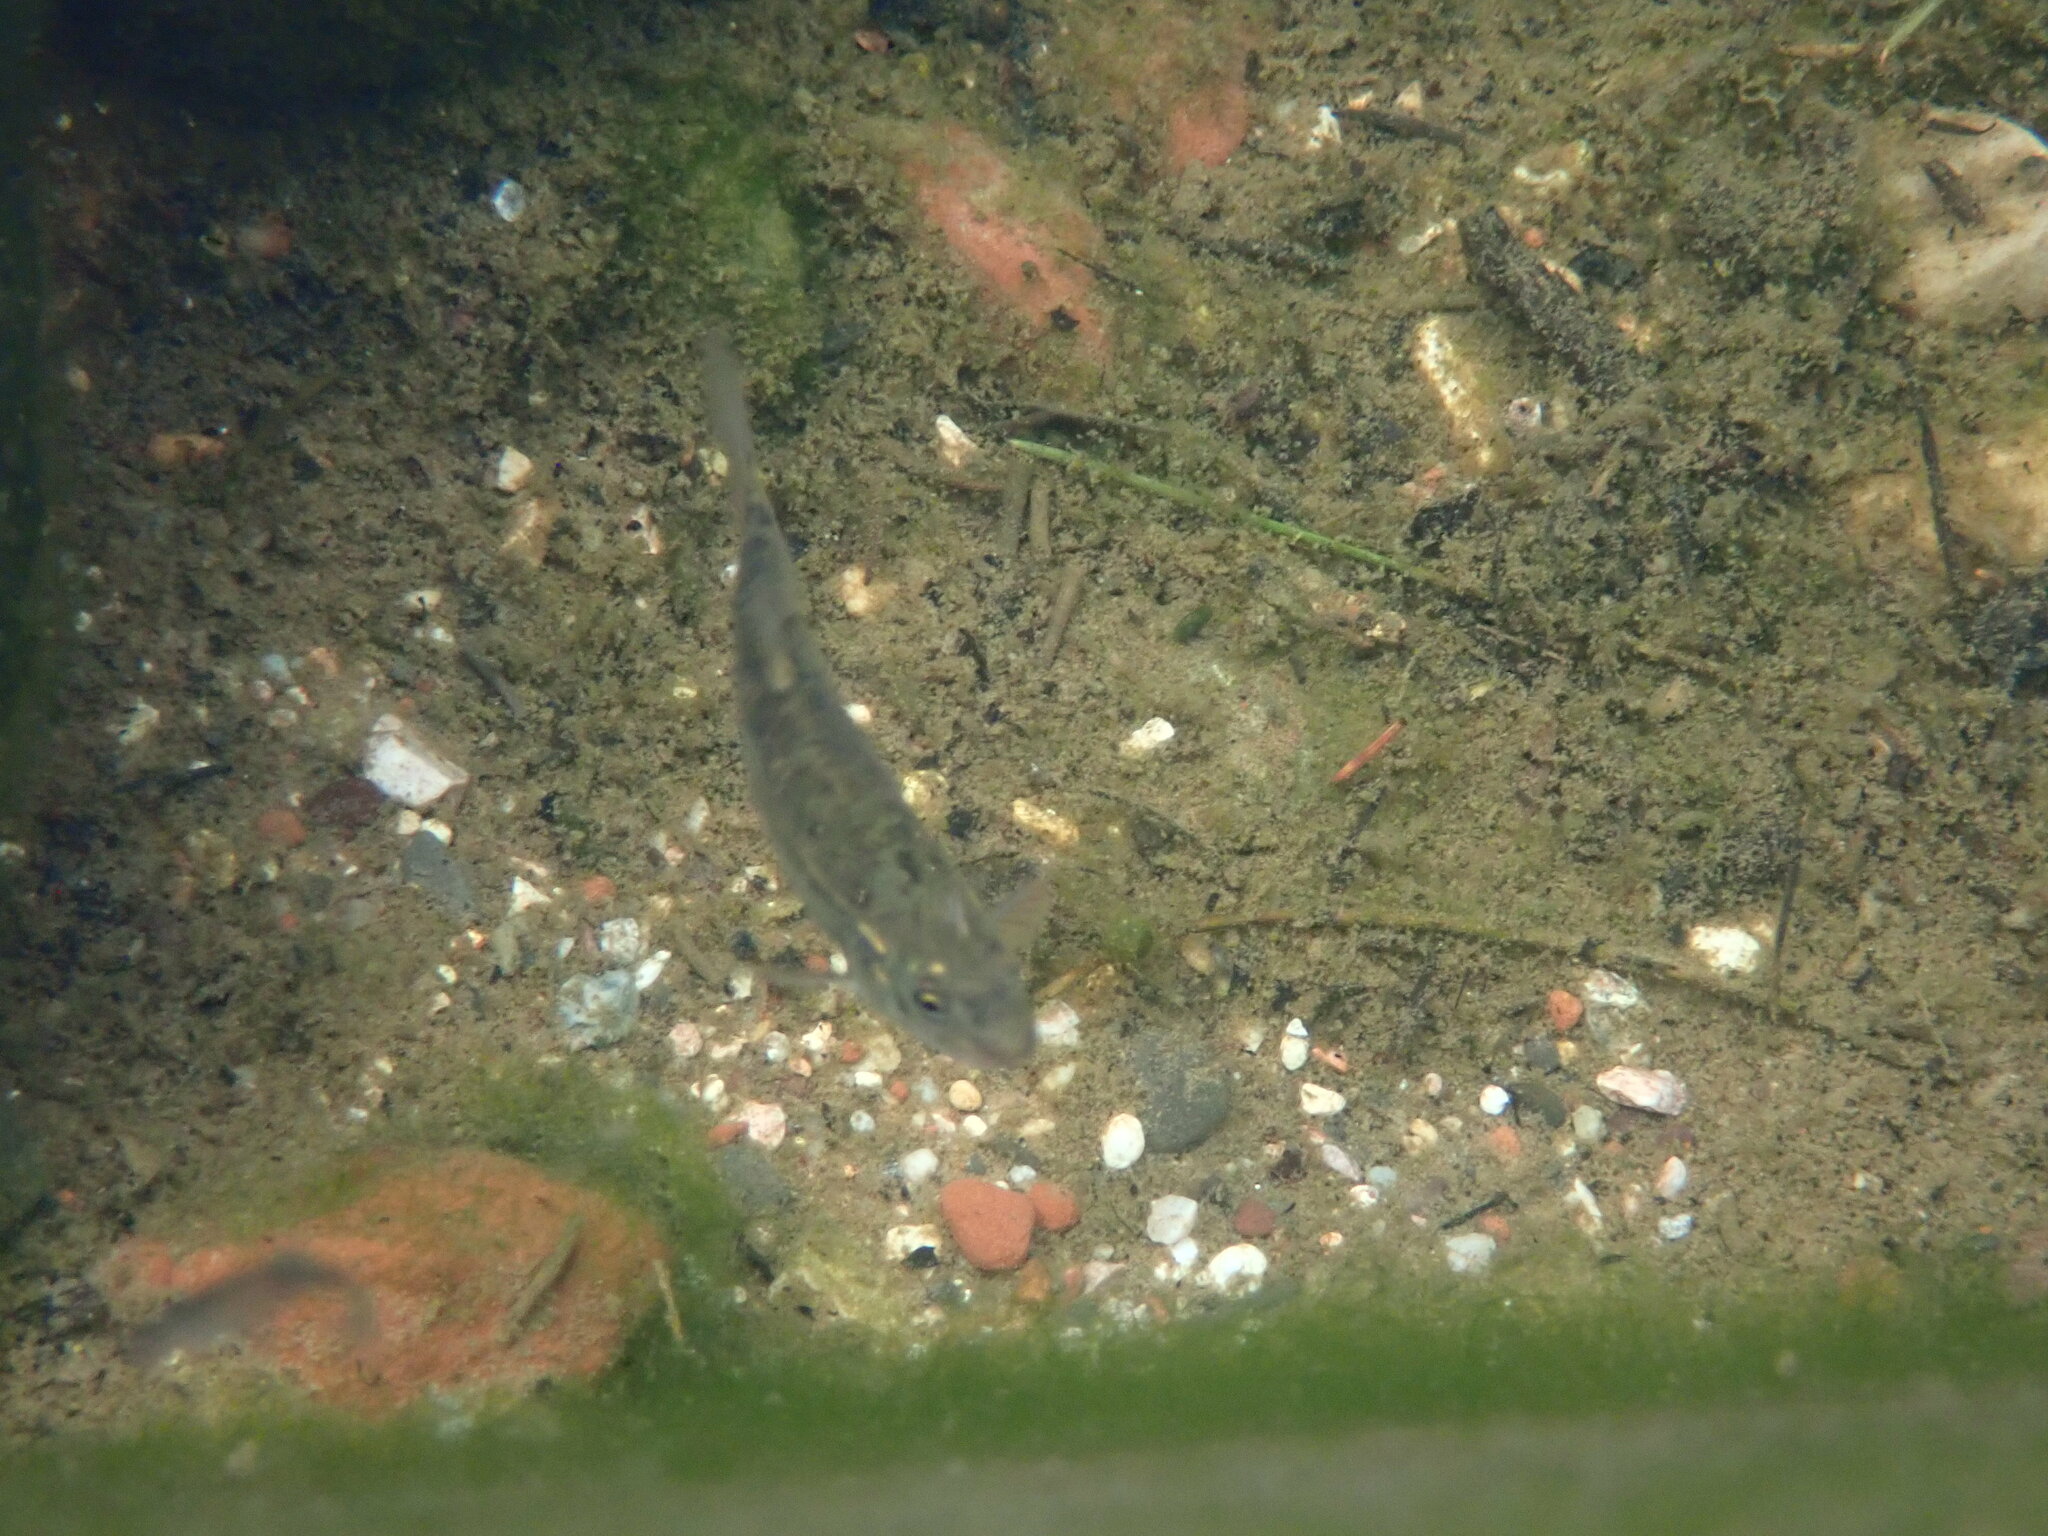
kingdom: Animalia
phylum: Chordata
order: Cypriniformes
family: Cyprinidae
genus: Rhinichthys
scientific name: Rhinichthys osculus
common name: Speckled dace
